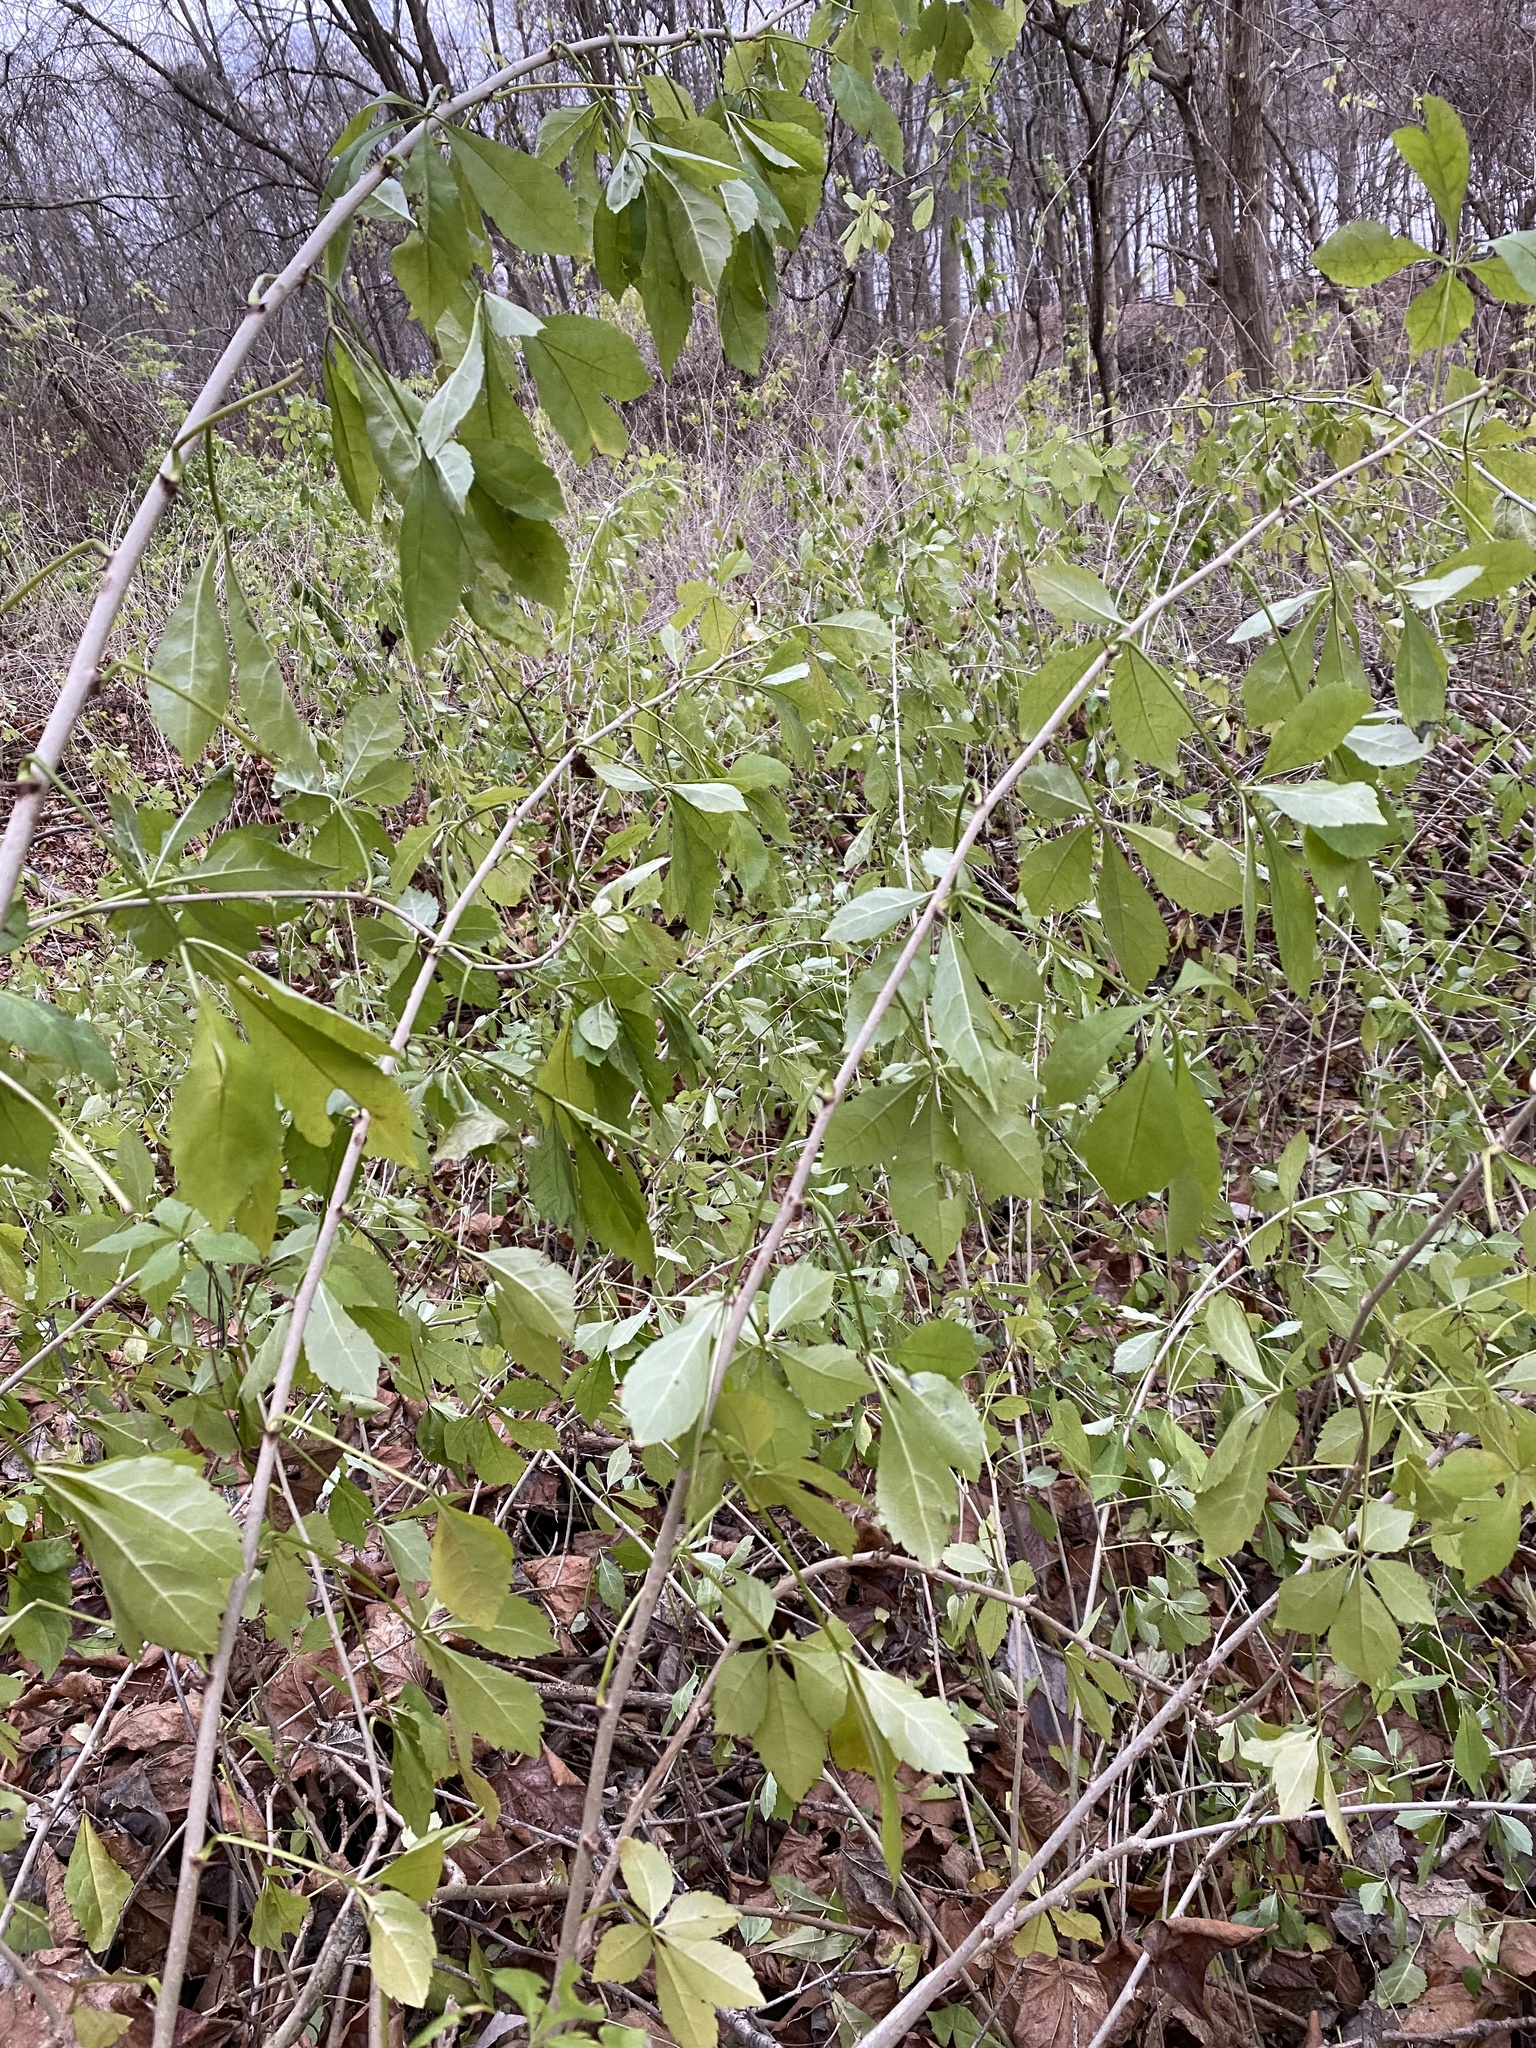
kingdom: Plantae
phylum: Tracheophyta
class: Magnoliopsida
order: Apiales
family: Araliaceae
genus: Eleutherococcus
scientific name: Eleutherococcus sieboldianus
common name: Ginseng
